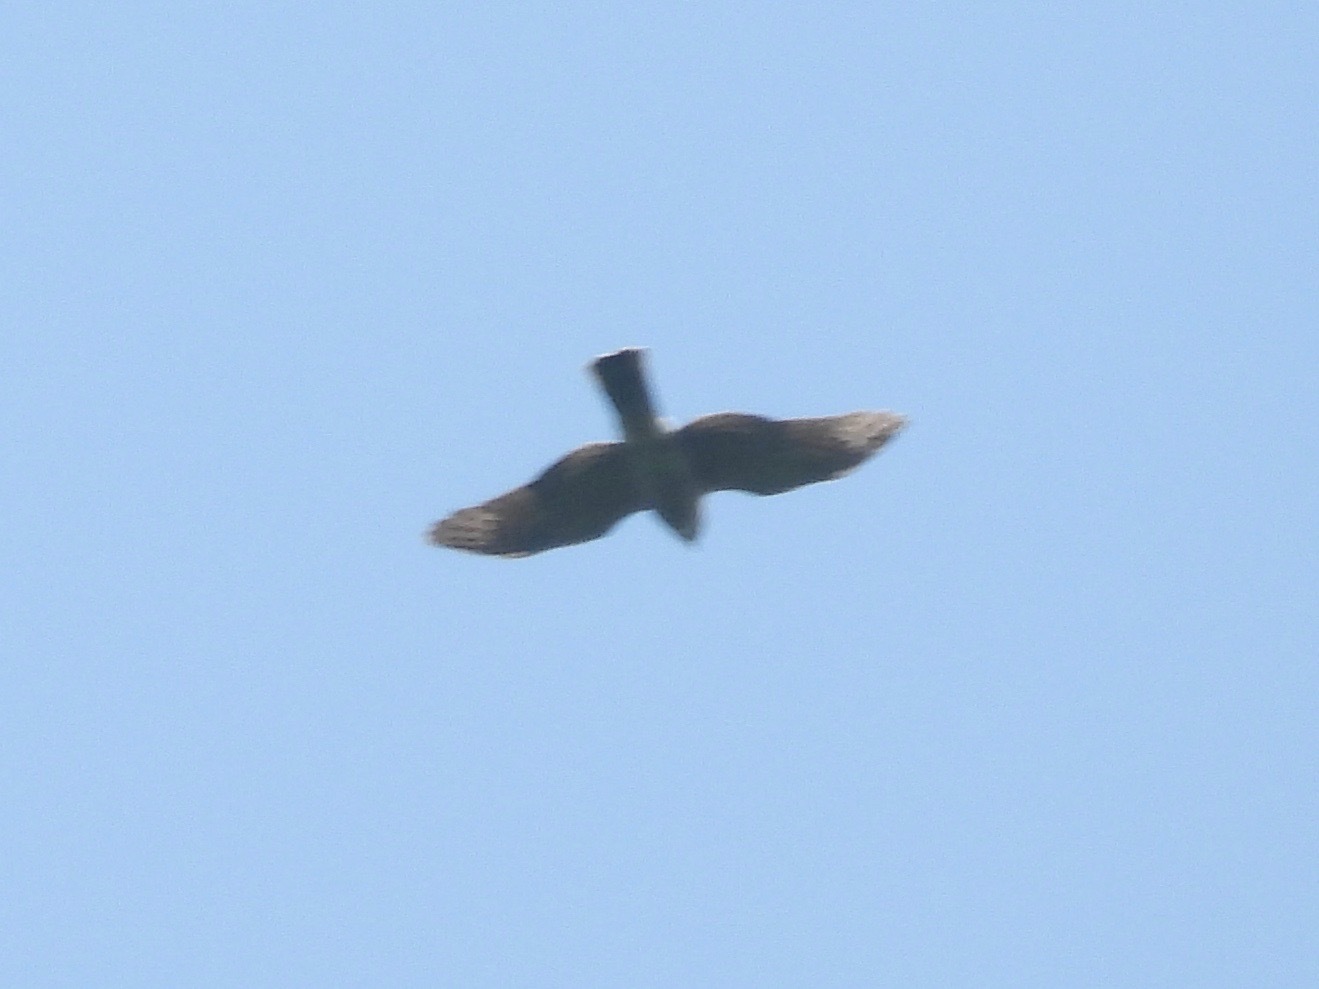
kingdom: Animalia
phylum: Chordata
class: Aves
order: Accipitriformes
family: Accipitridae
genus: Accipiter
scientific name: Accipiter striatus
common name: Sharp-shinned hawk
